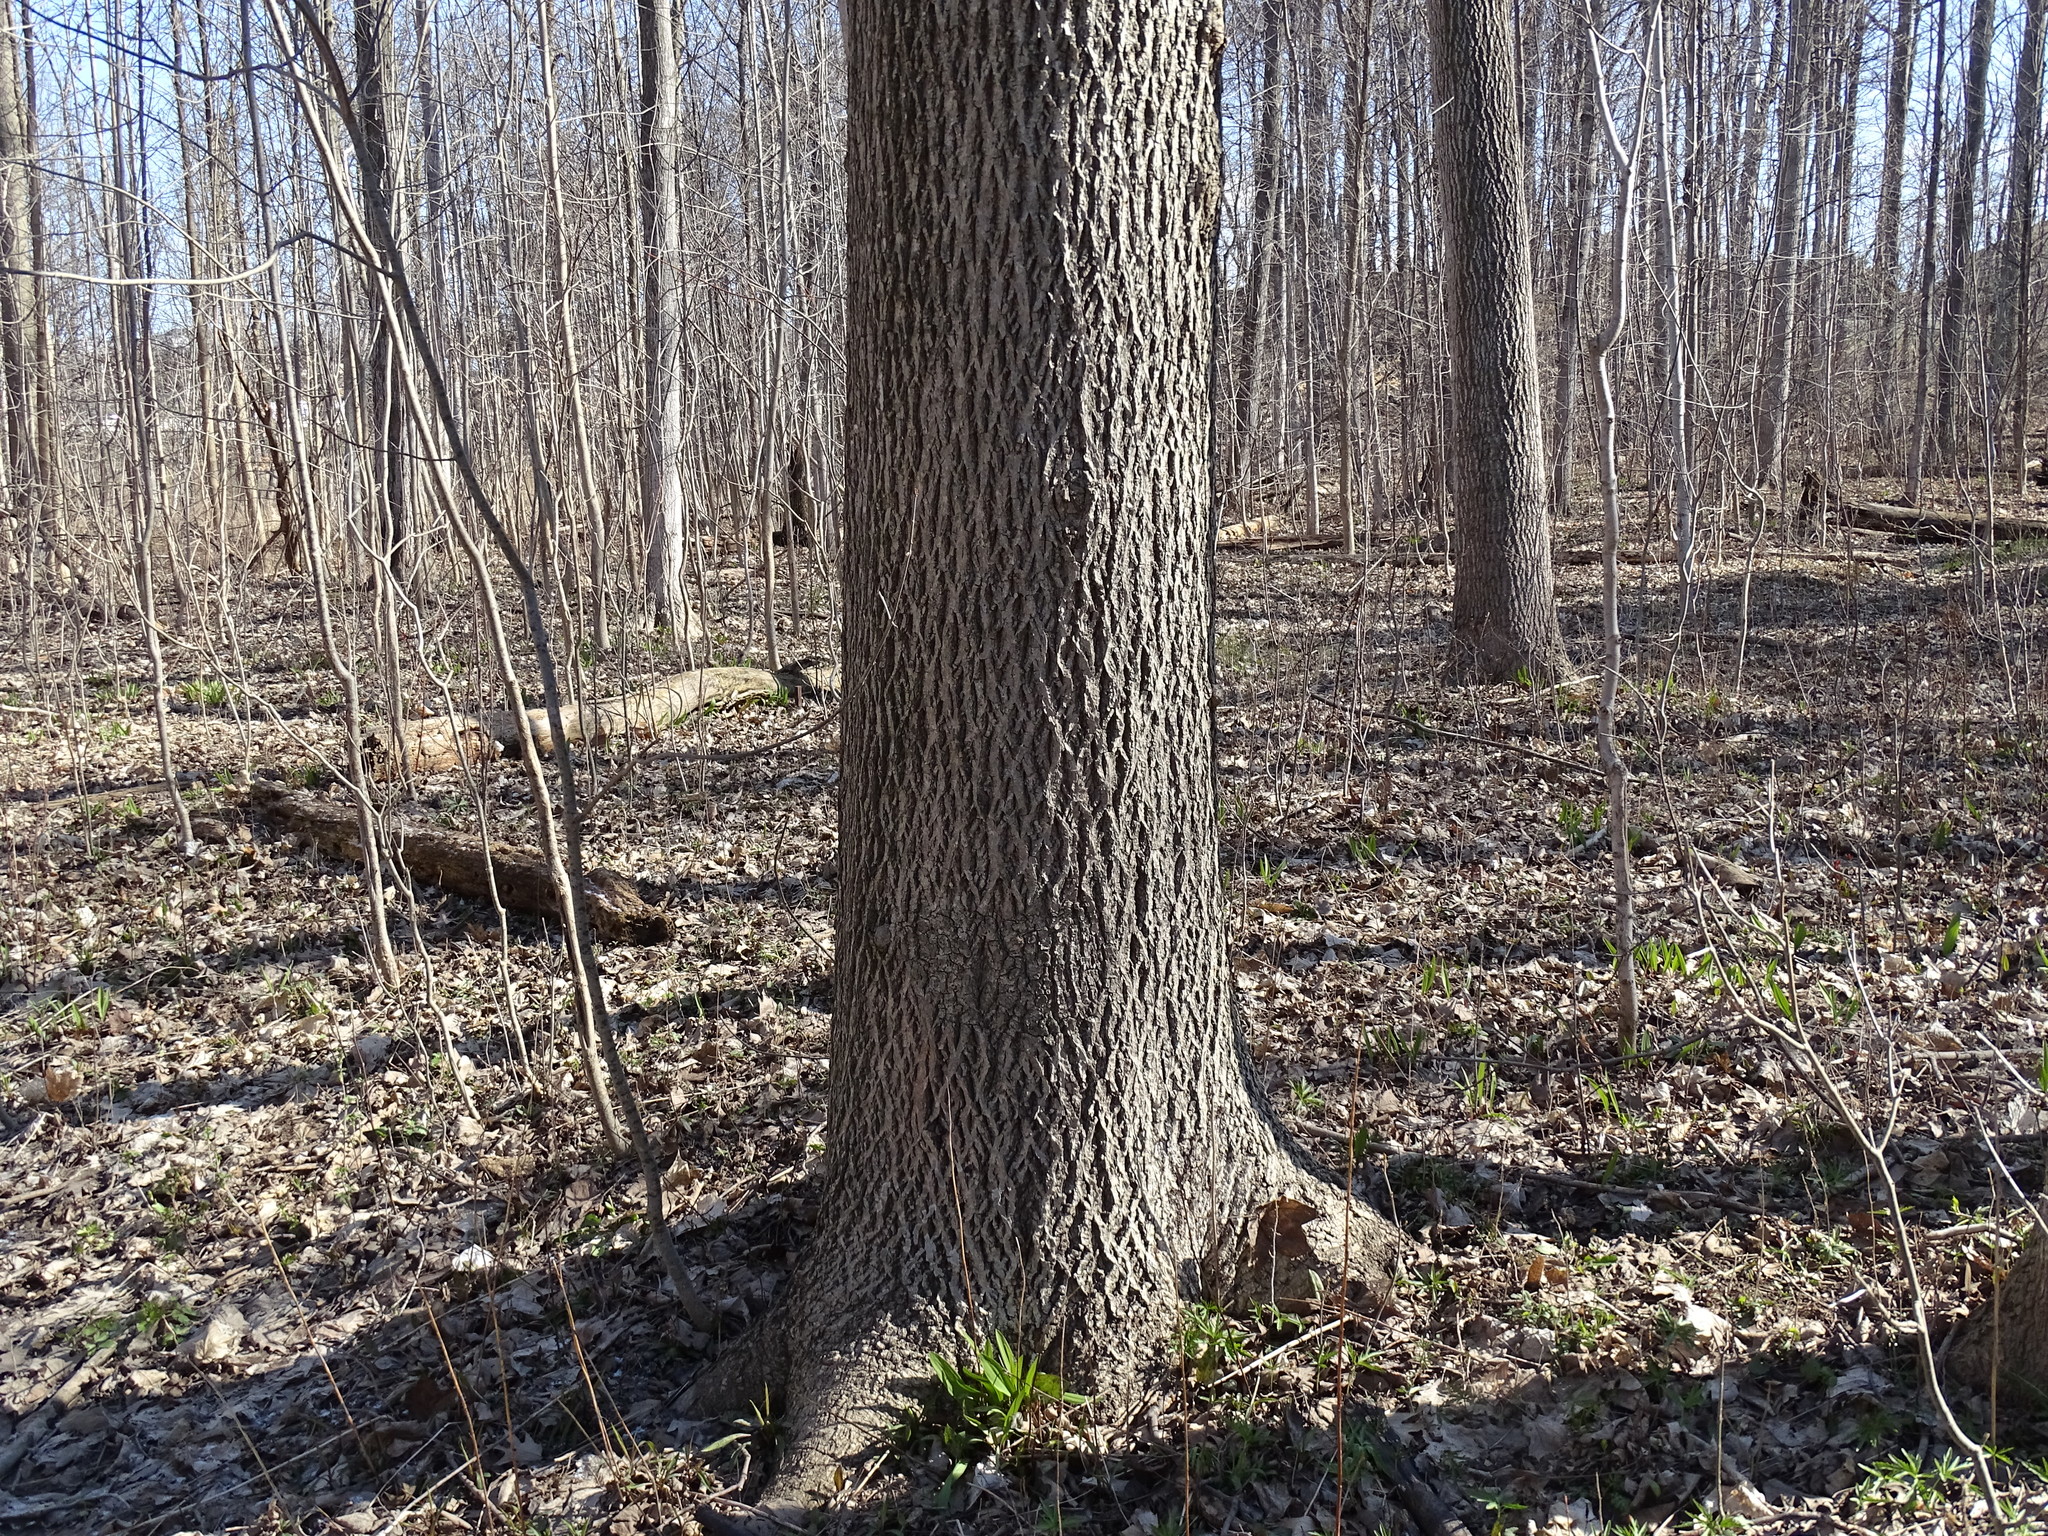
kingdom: Plantae
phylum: Tracheophyta
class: Magnoliopsida
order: Fagales
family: Juglandaceae
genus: Carya
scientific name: Carya cordiformis
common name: Bitternut hickory
